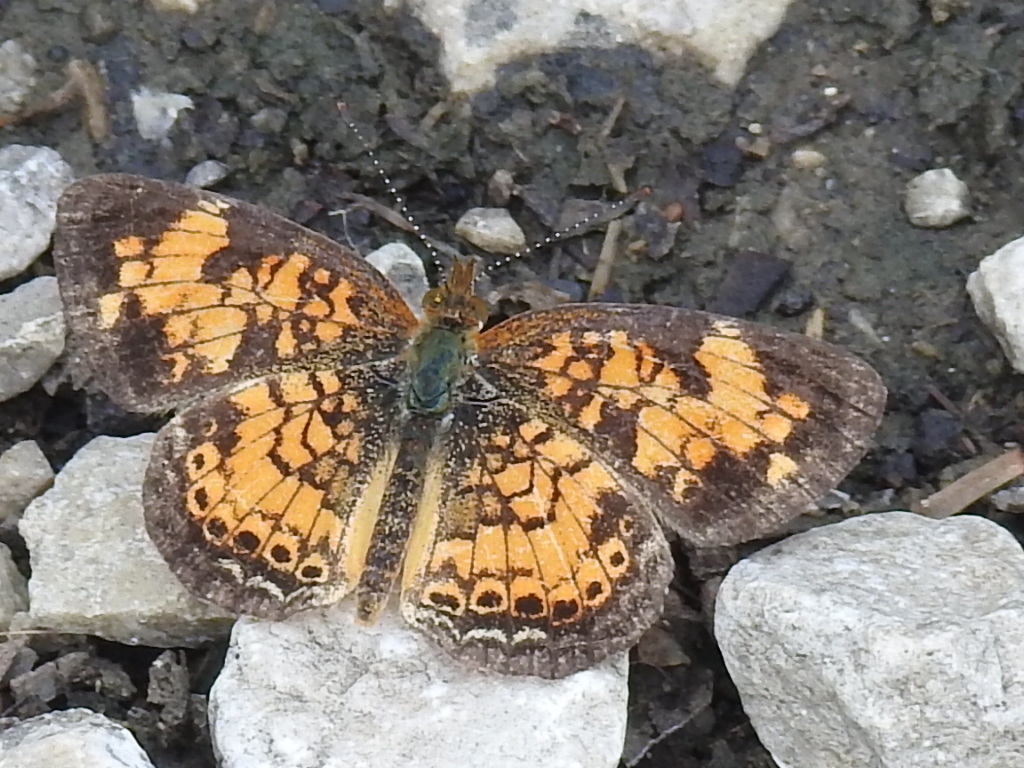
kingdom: Animalia
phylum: Arthropoda
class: Insecta
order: Lepidoptera
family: Nymphalidae
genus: Phyciodes
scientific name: Phyciodes tharos
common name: Pearl crescent
